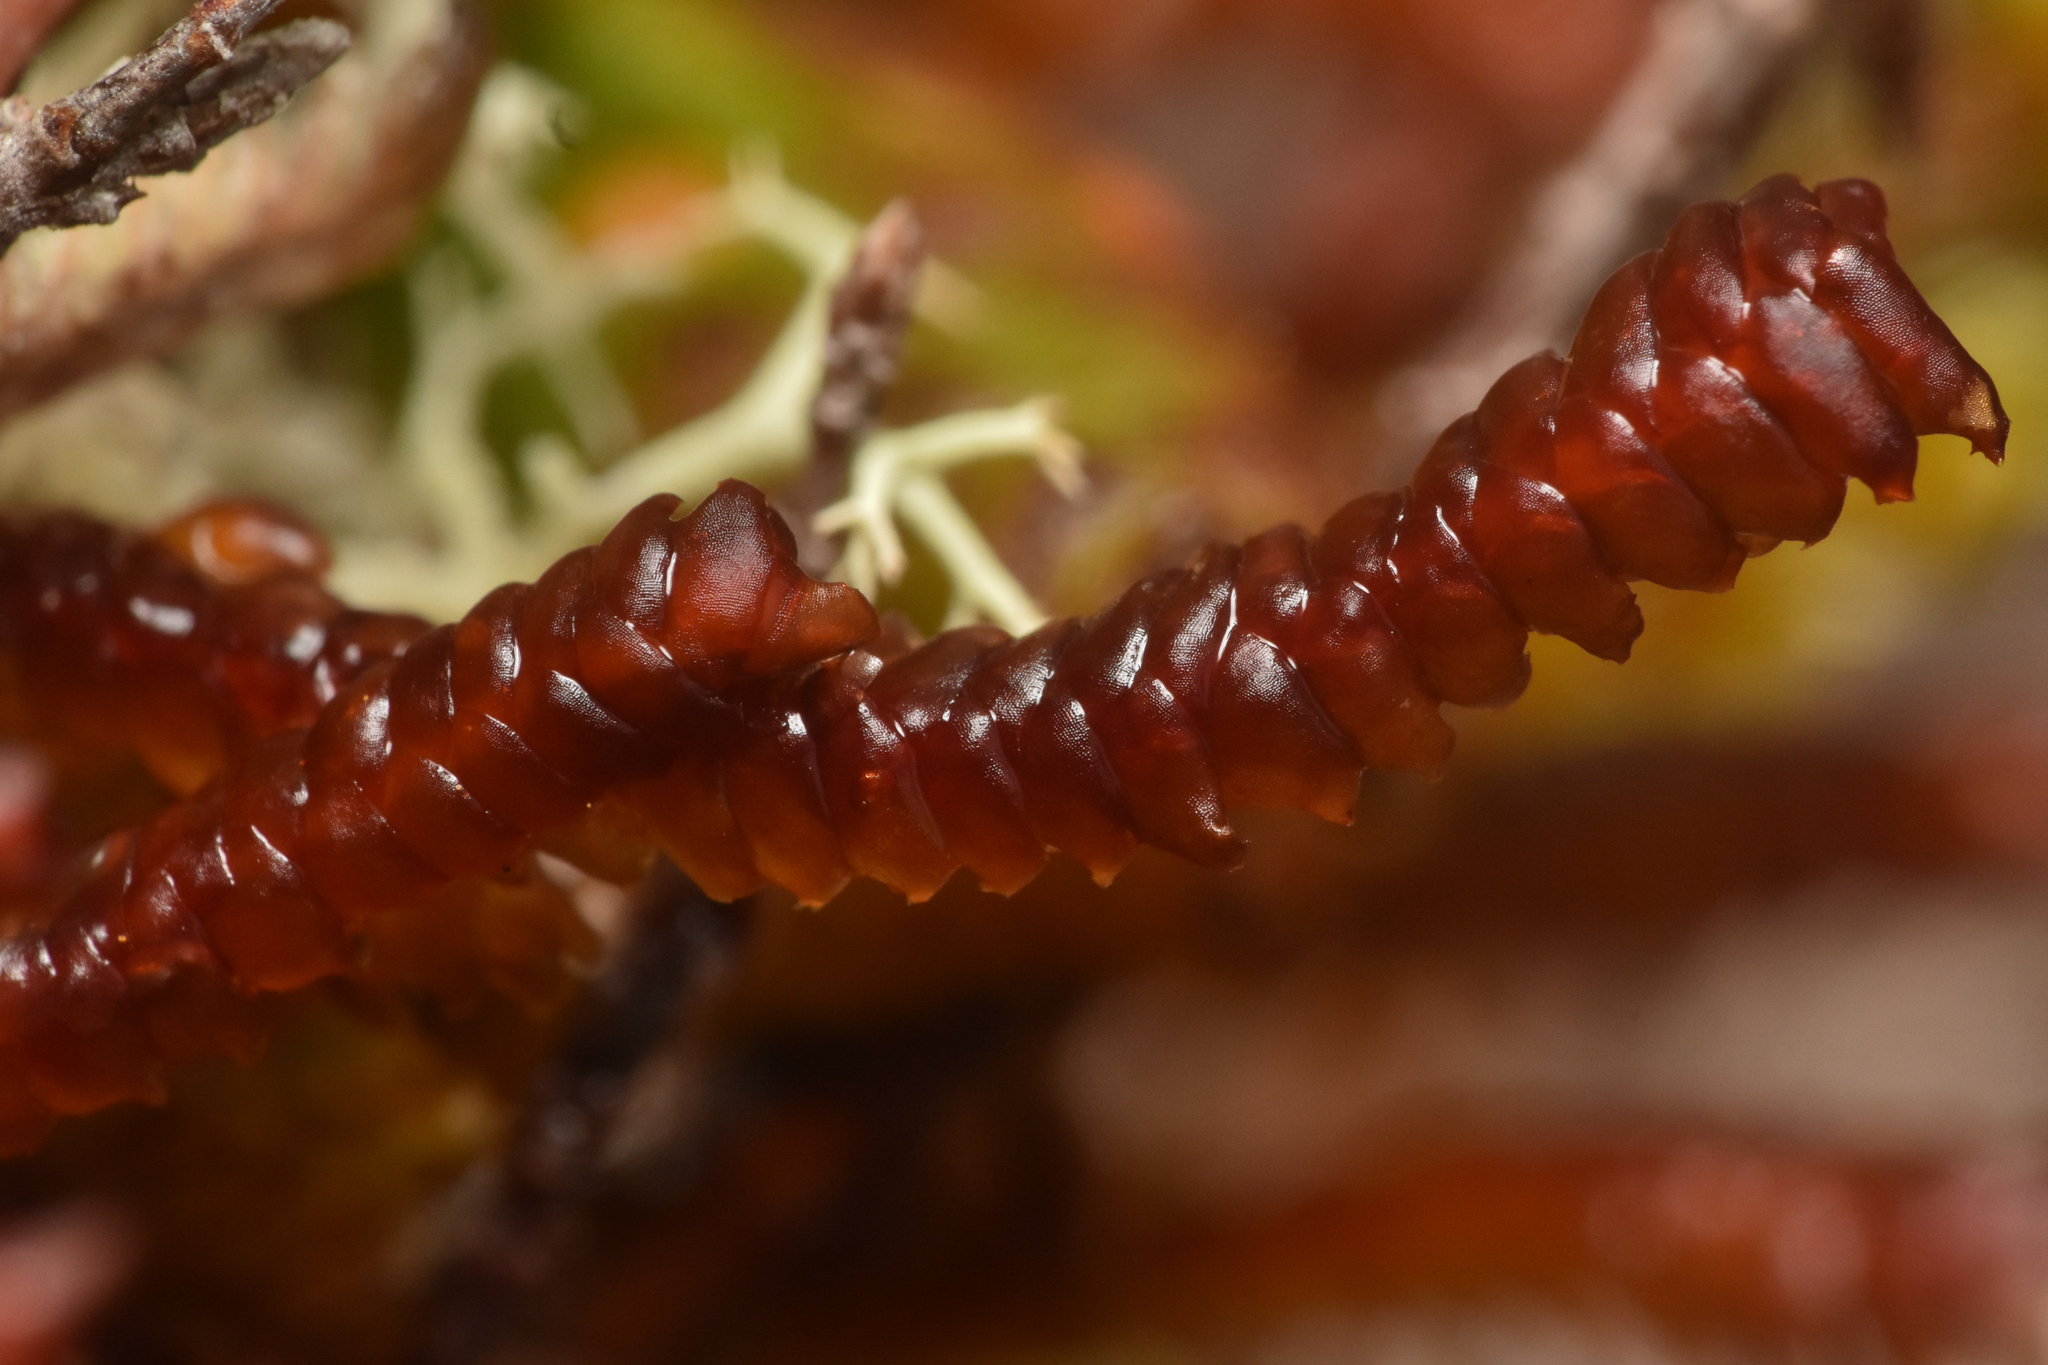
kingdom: Plantae
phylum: Marchantiophyta
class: Jungermanniopsida
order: Pleuroziales
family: Pleuroziaceae
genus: Pleurozia
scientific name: Pleurozia purpurea
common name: Purple spoonwort
